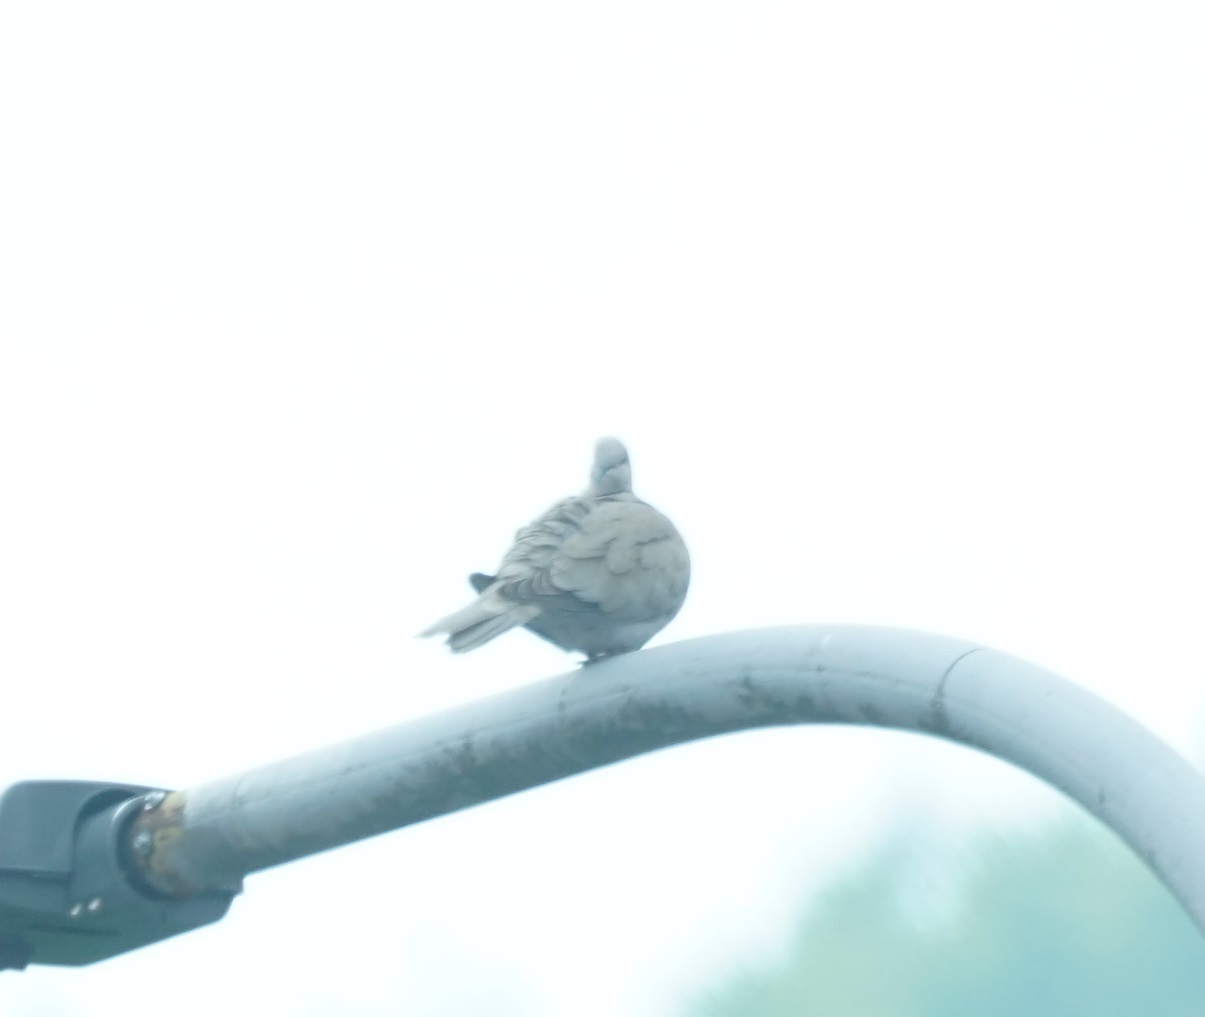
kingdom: Animalia
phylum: Chordata
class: Aves
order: Columbiformes
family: Columbidae
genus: Streptopelia
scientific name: Streptopelia decaocto
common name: Eurasian collared dove
